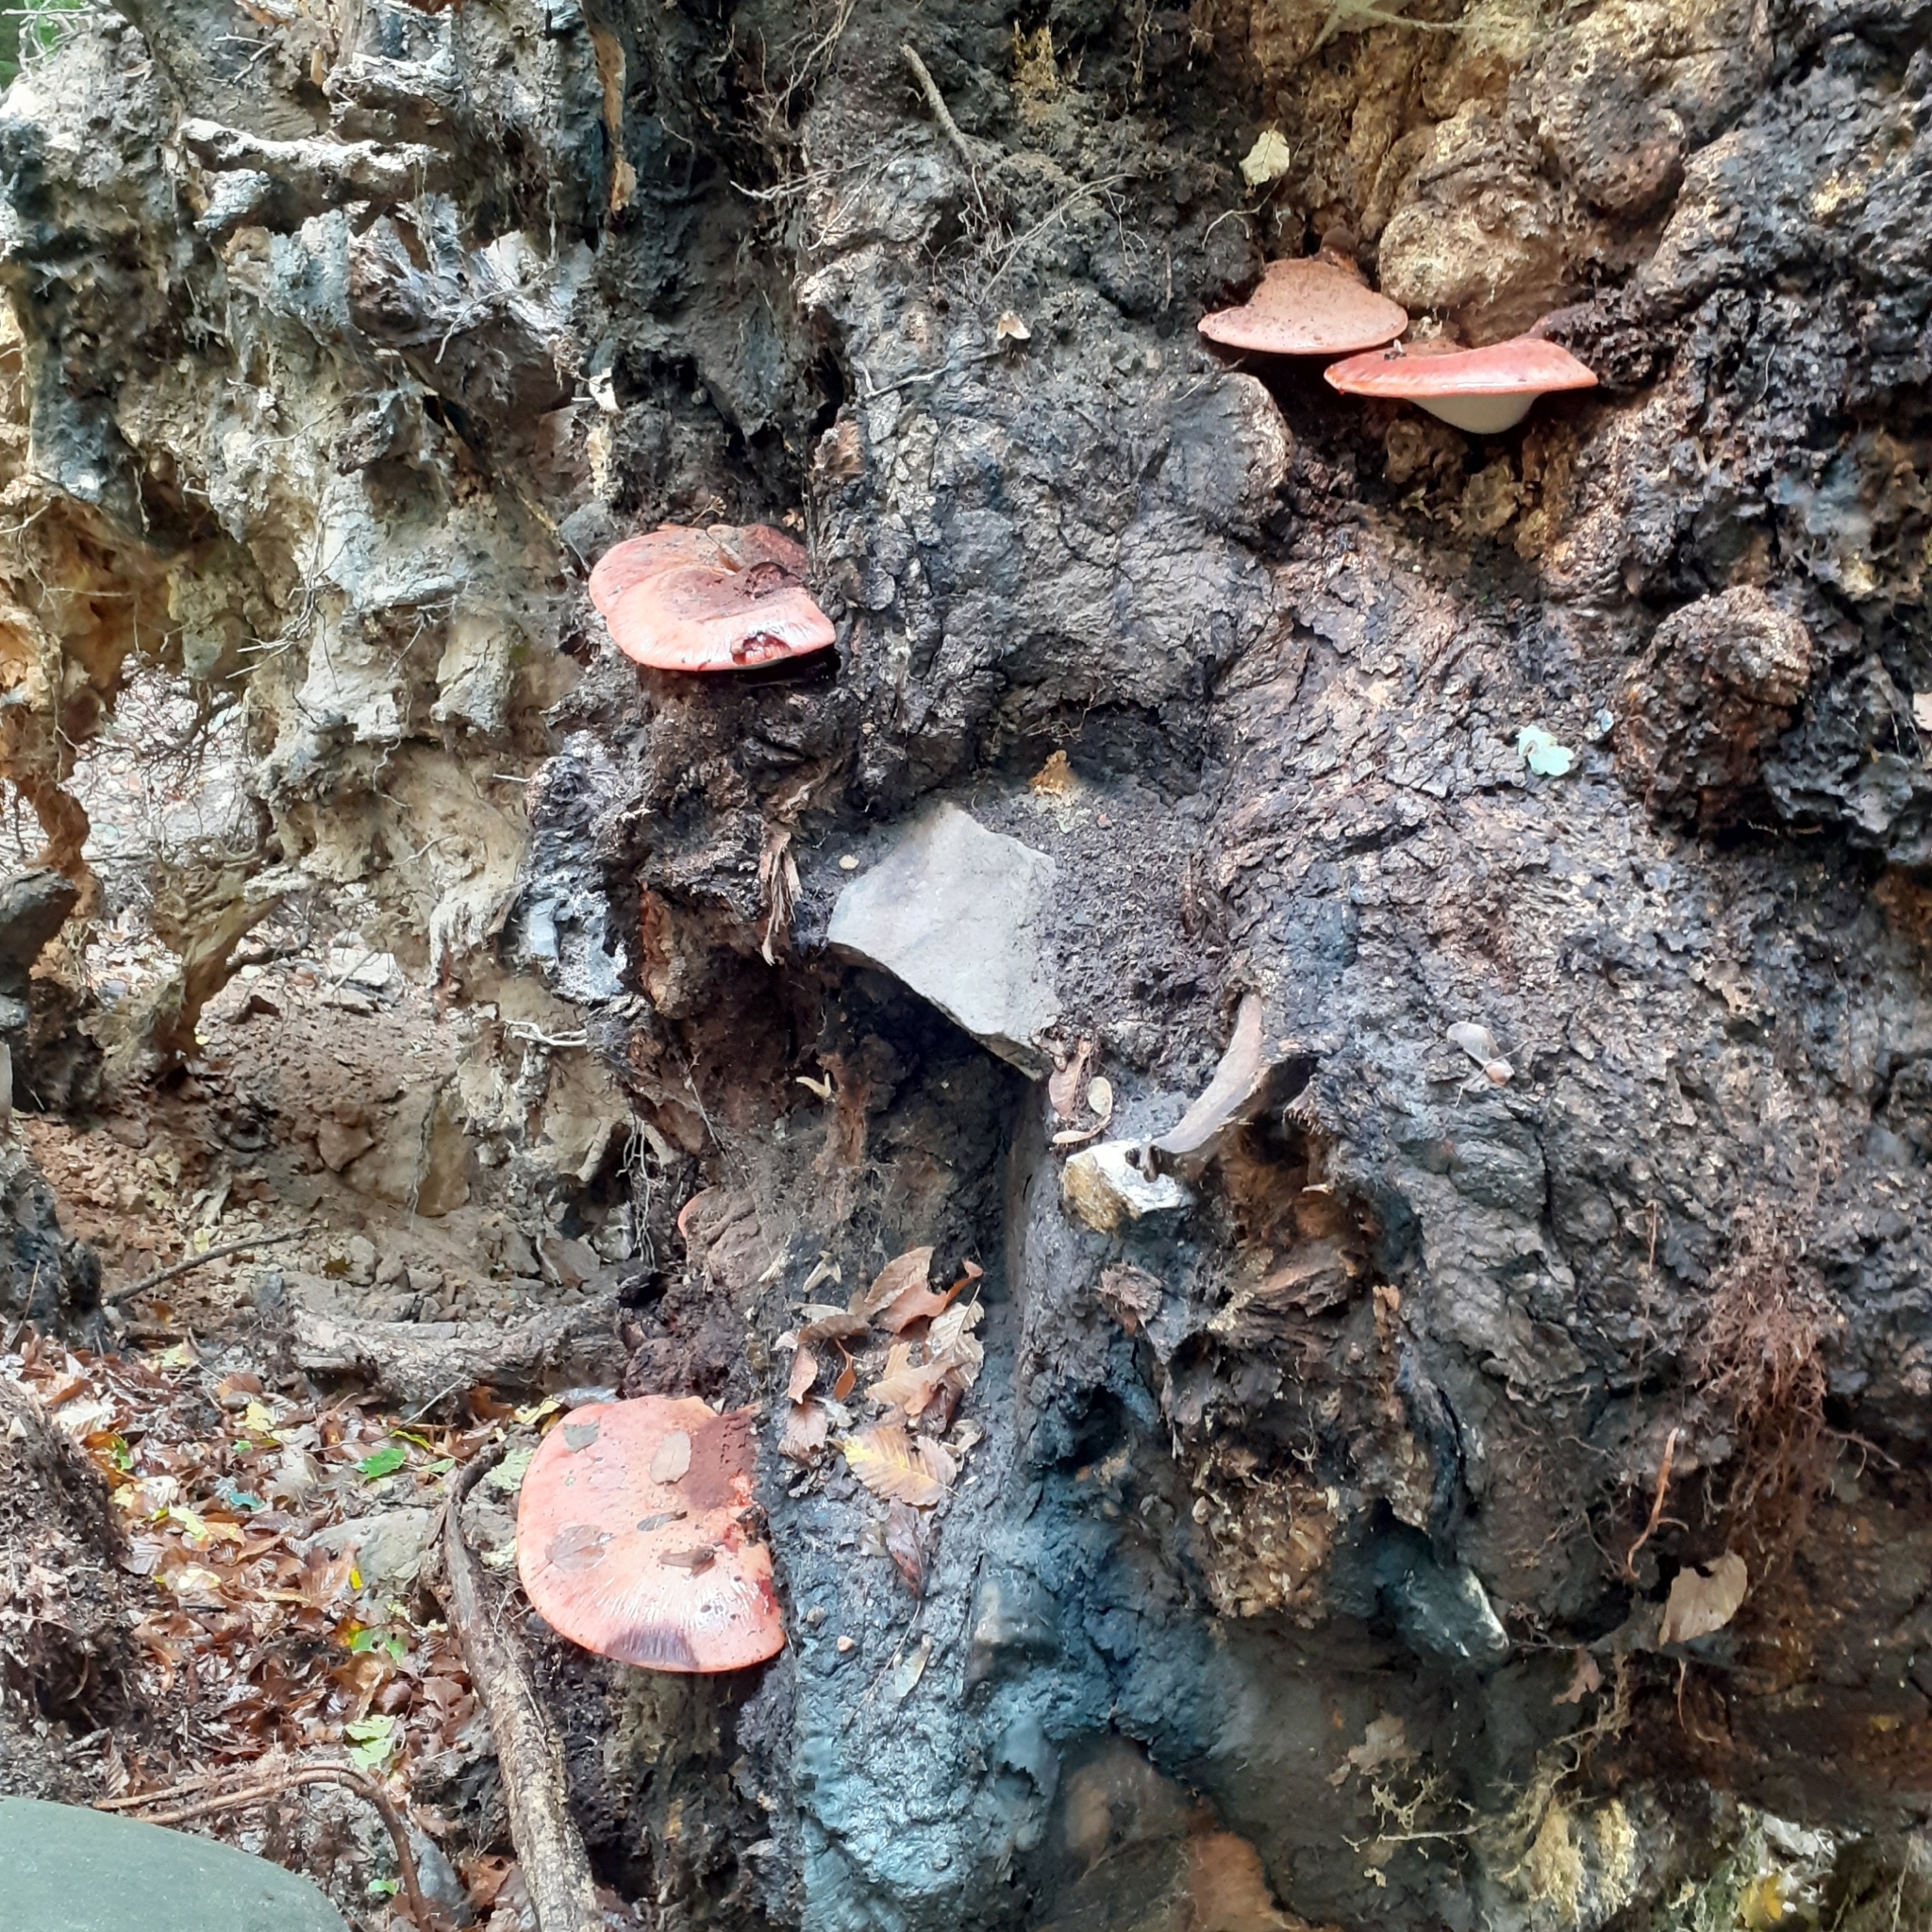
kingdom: Fungi
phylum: Basidiomycota
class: Agaricomycetes
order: Agaricales
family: Fistulinaceae
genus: Fistulina
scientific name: Fistulina hepatica
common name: Beef-steak fungus
